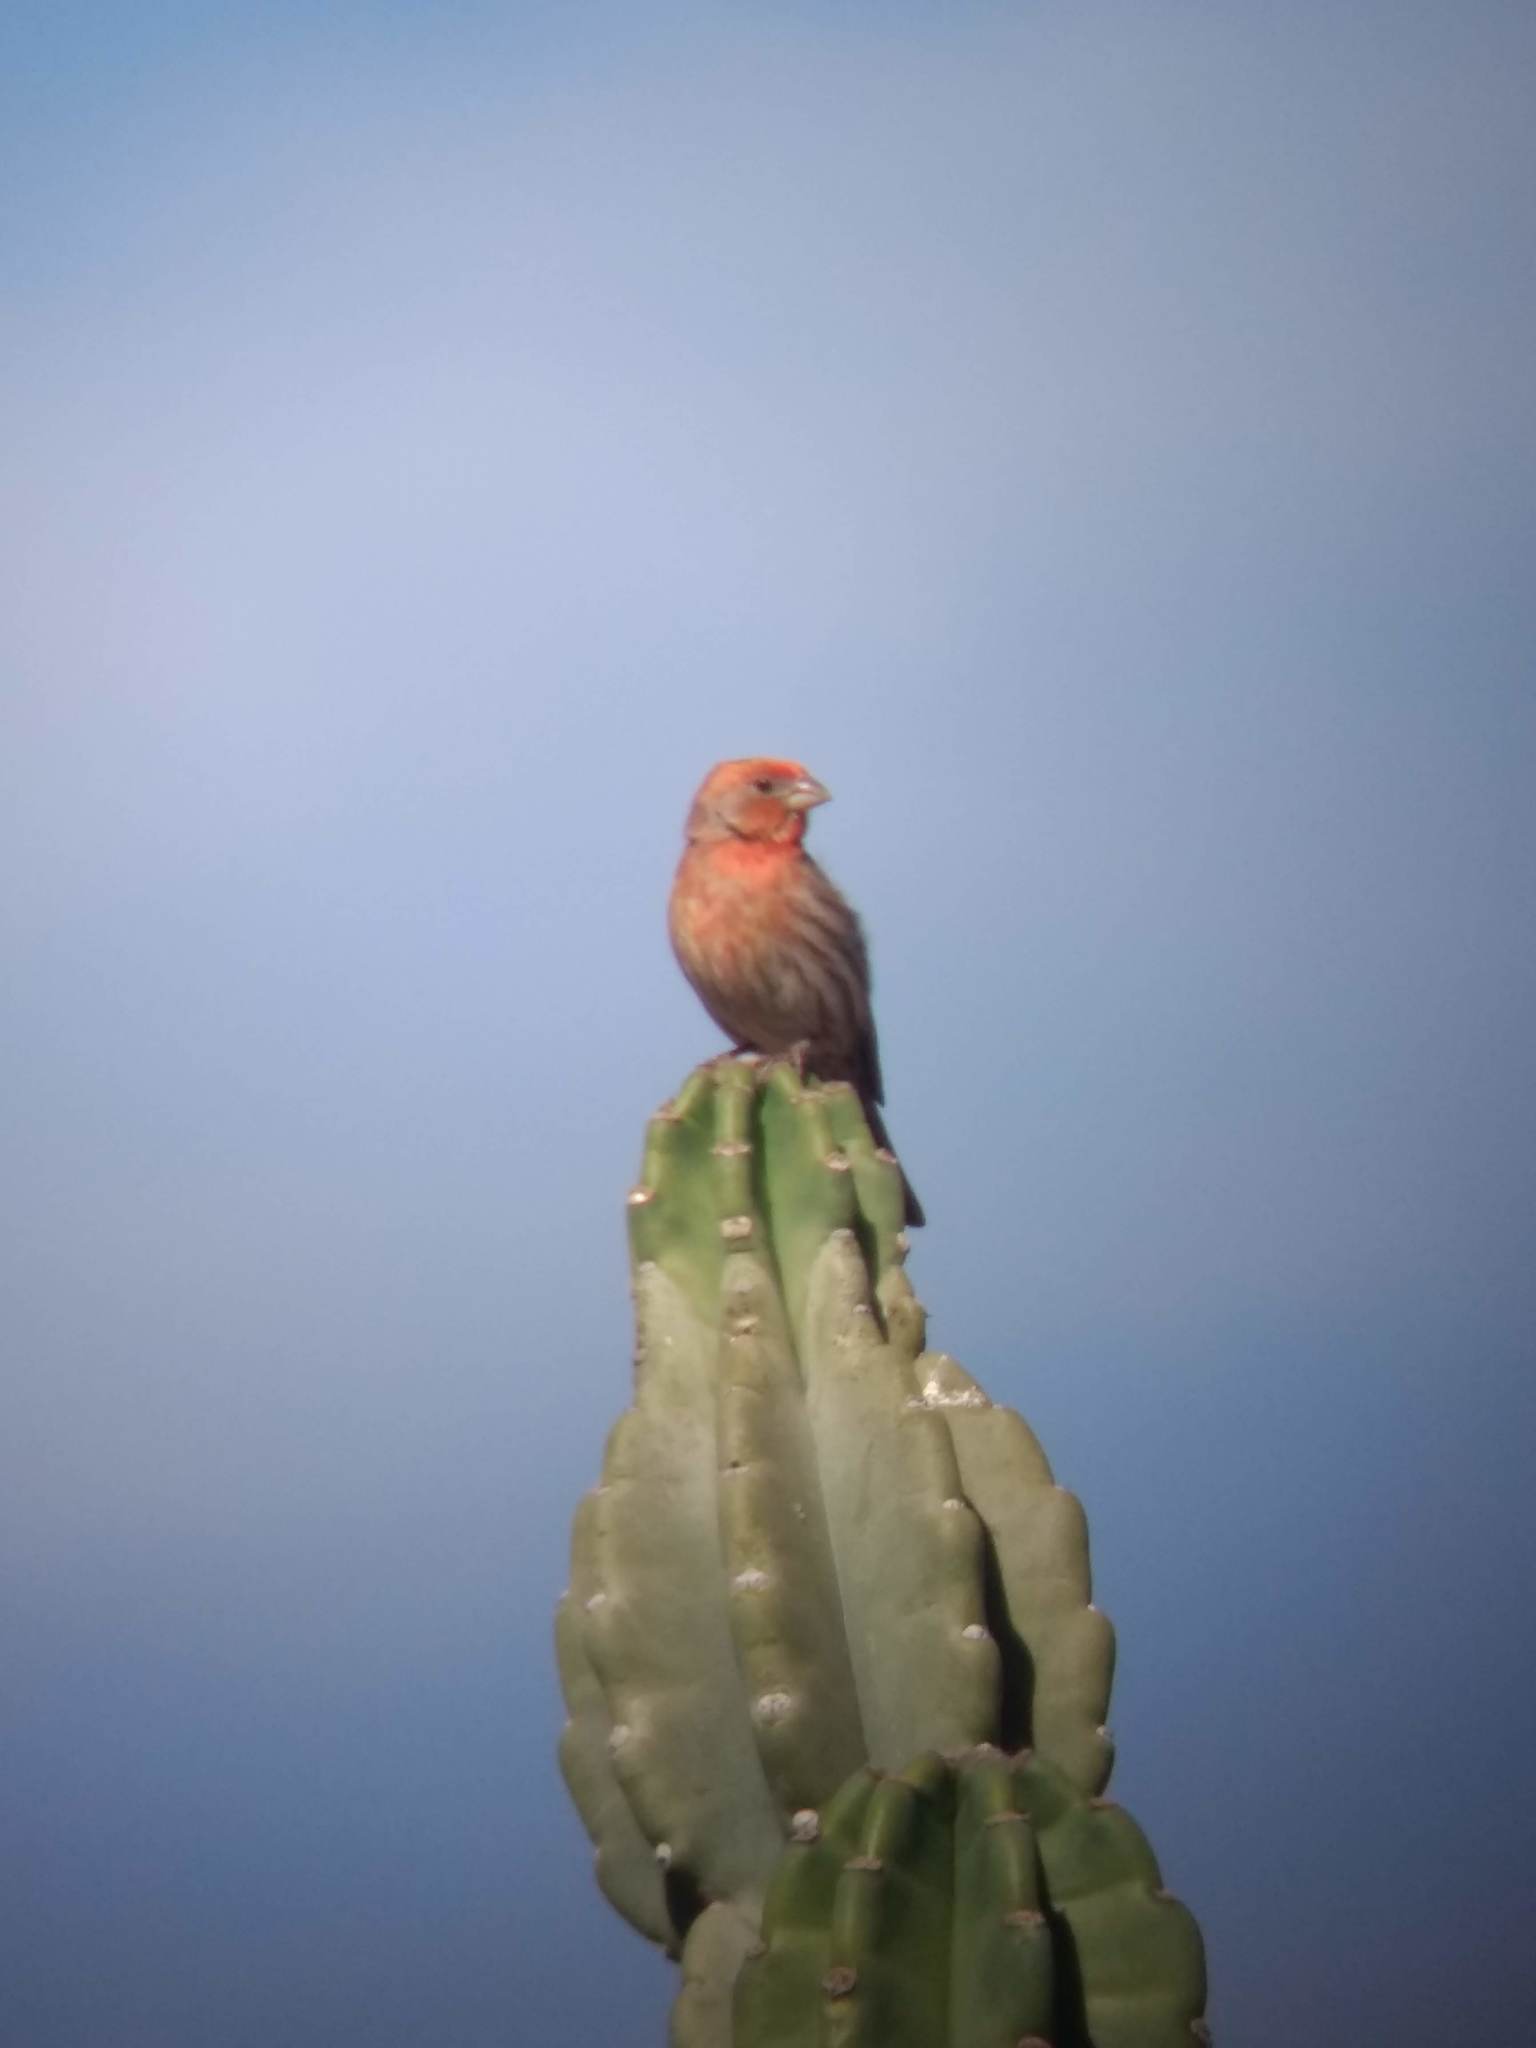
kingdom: Animalia
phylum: Chordata
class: Aves
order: Passeriformes
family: Fringillidae
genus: Haemorhous
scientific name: Haemorhous mexicanus
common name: House finch
